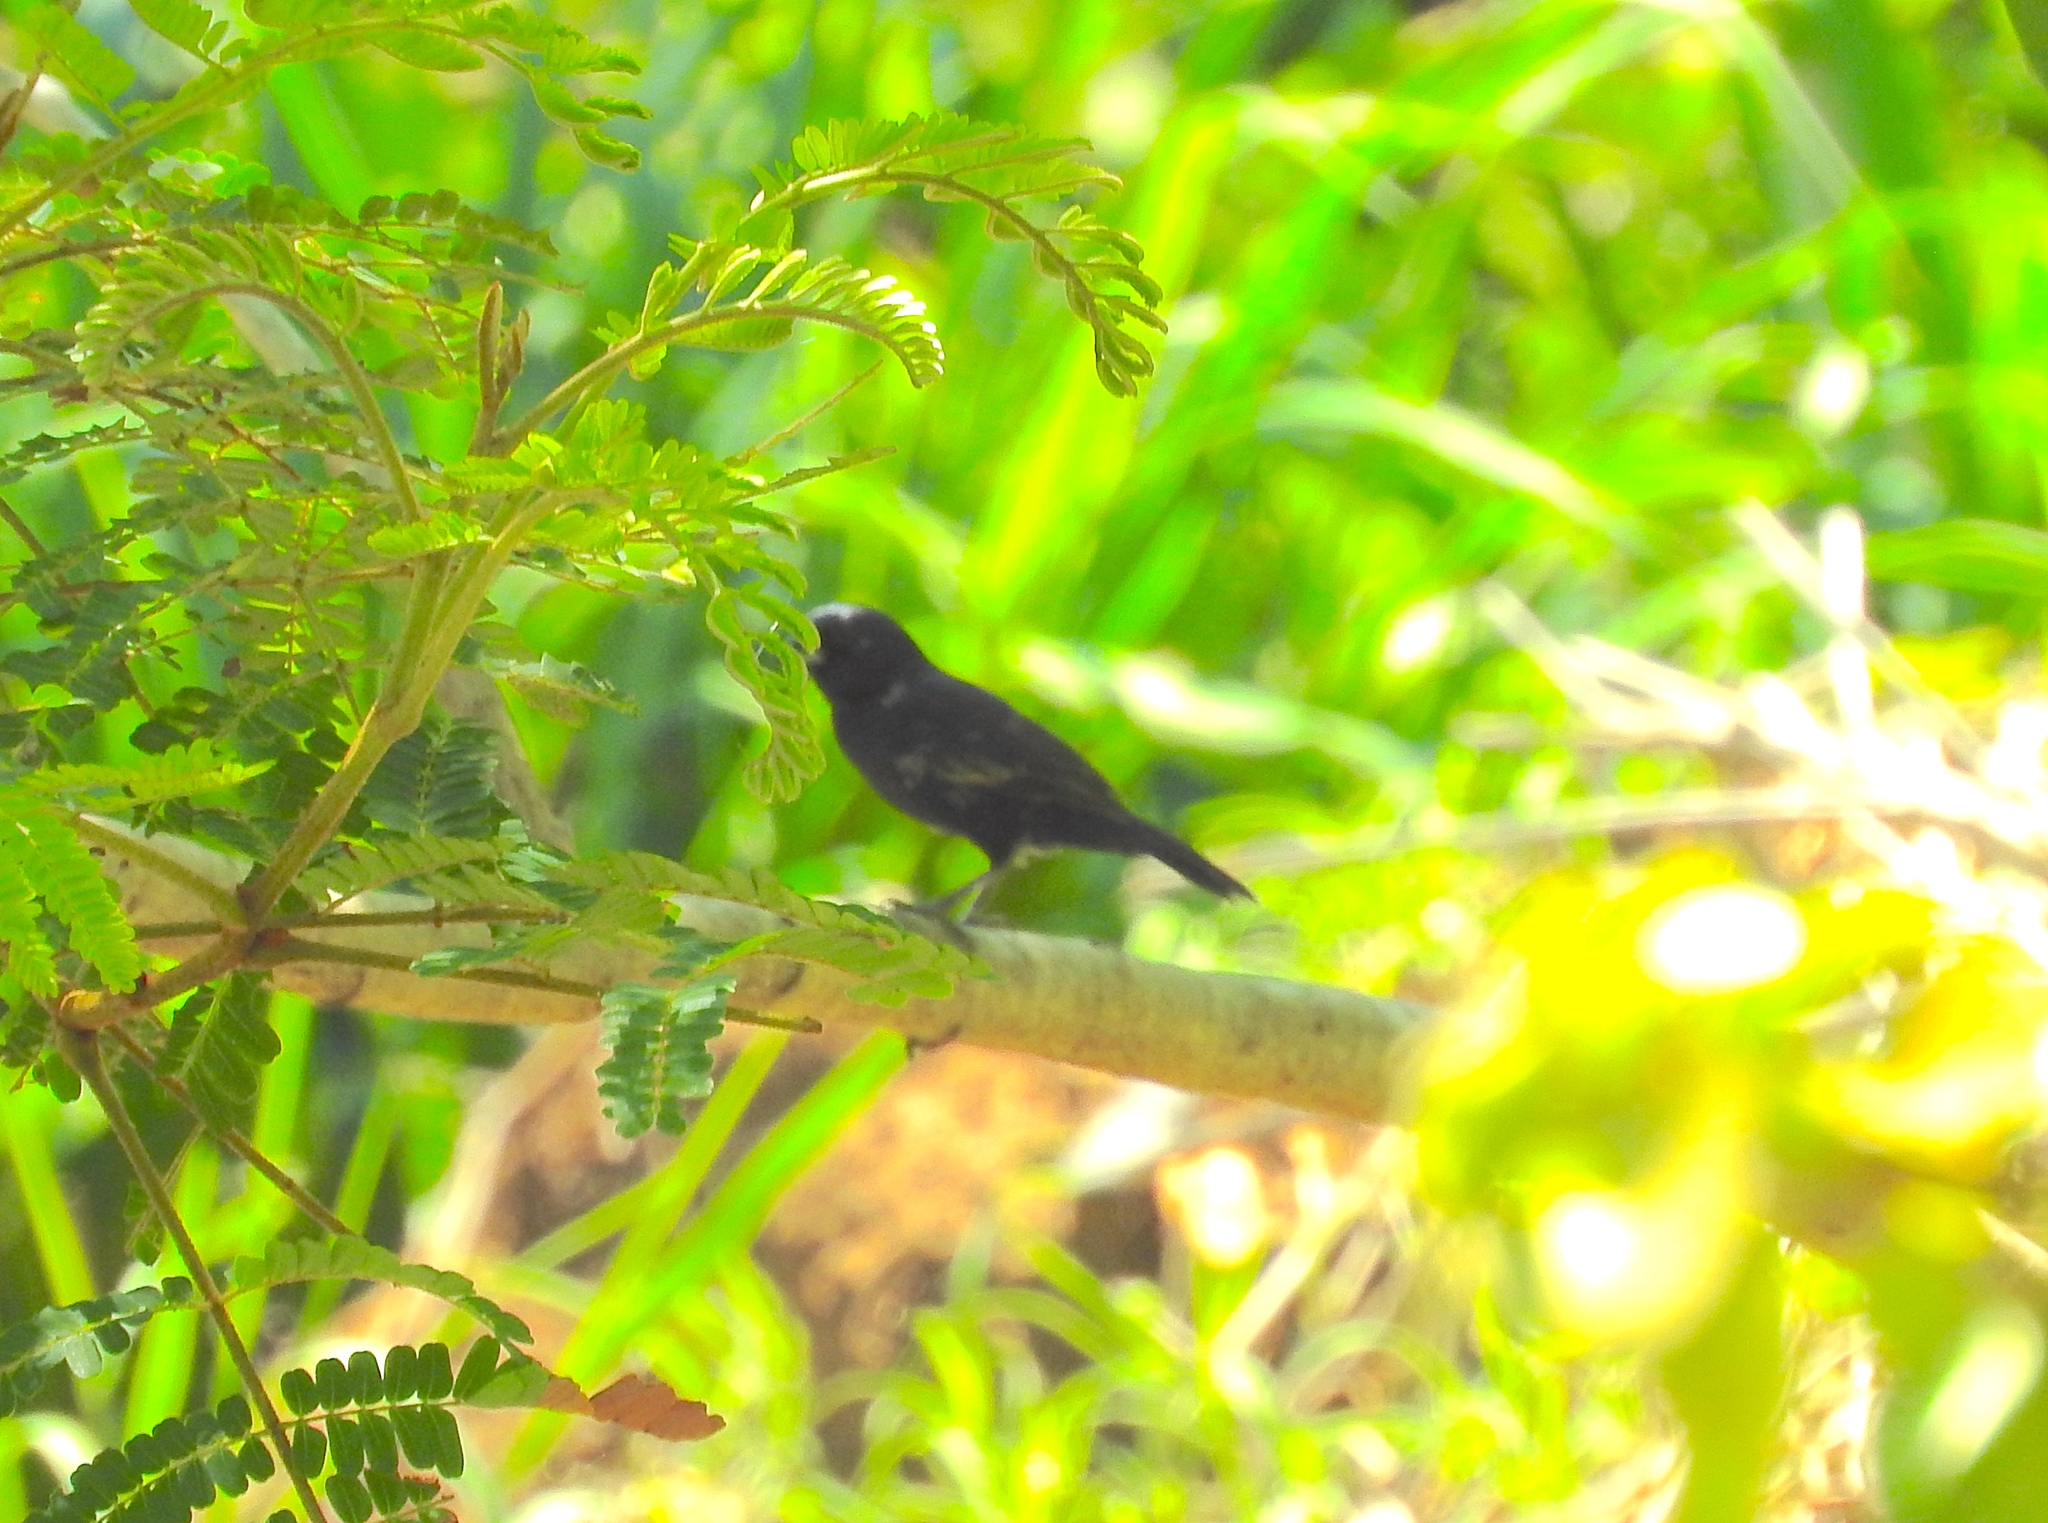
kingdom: Animalia
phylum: Chordata
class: Aves
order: Passeriformes
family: Thraupidae
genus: Volatinia
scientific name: Volatinia jacarina
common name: Blue-black grassquit
